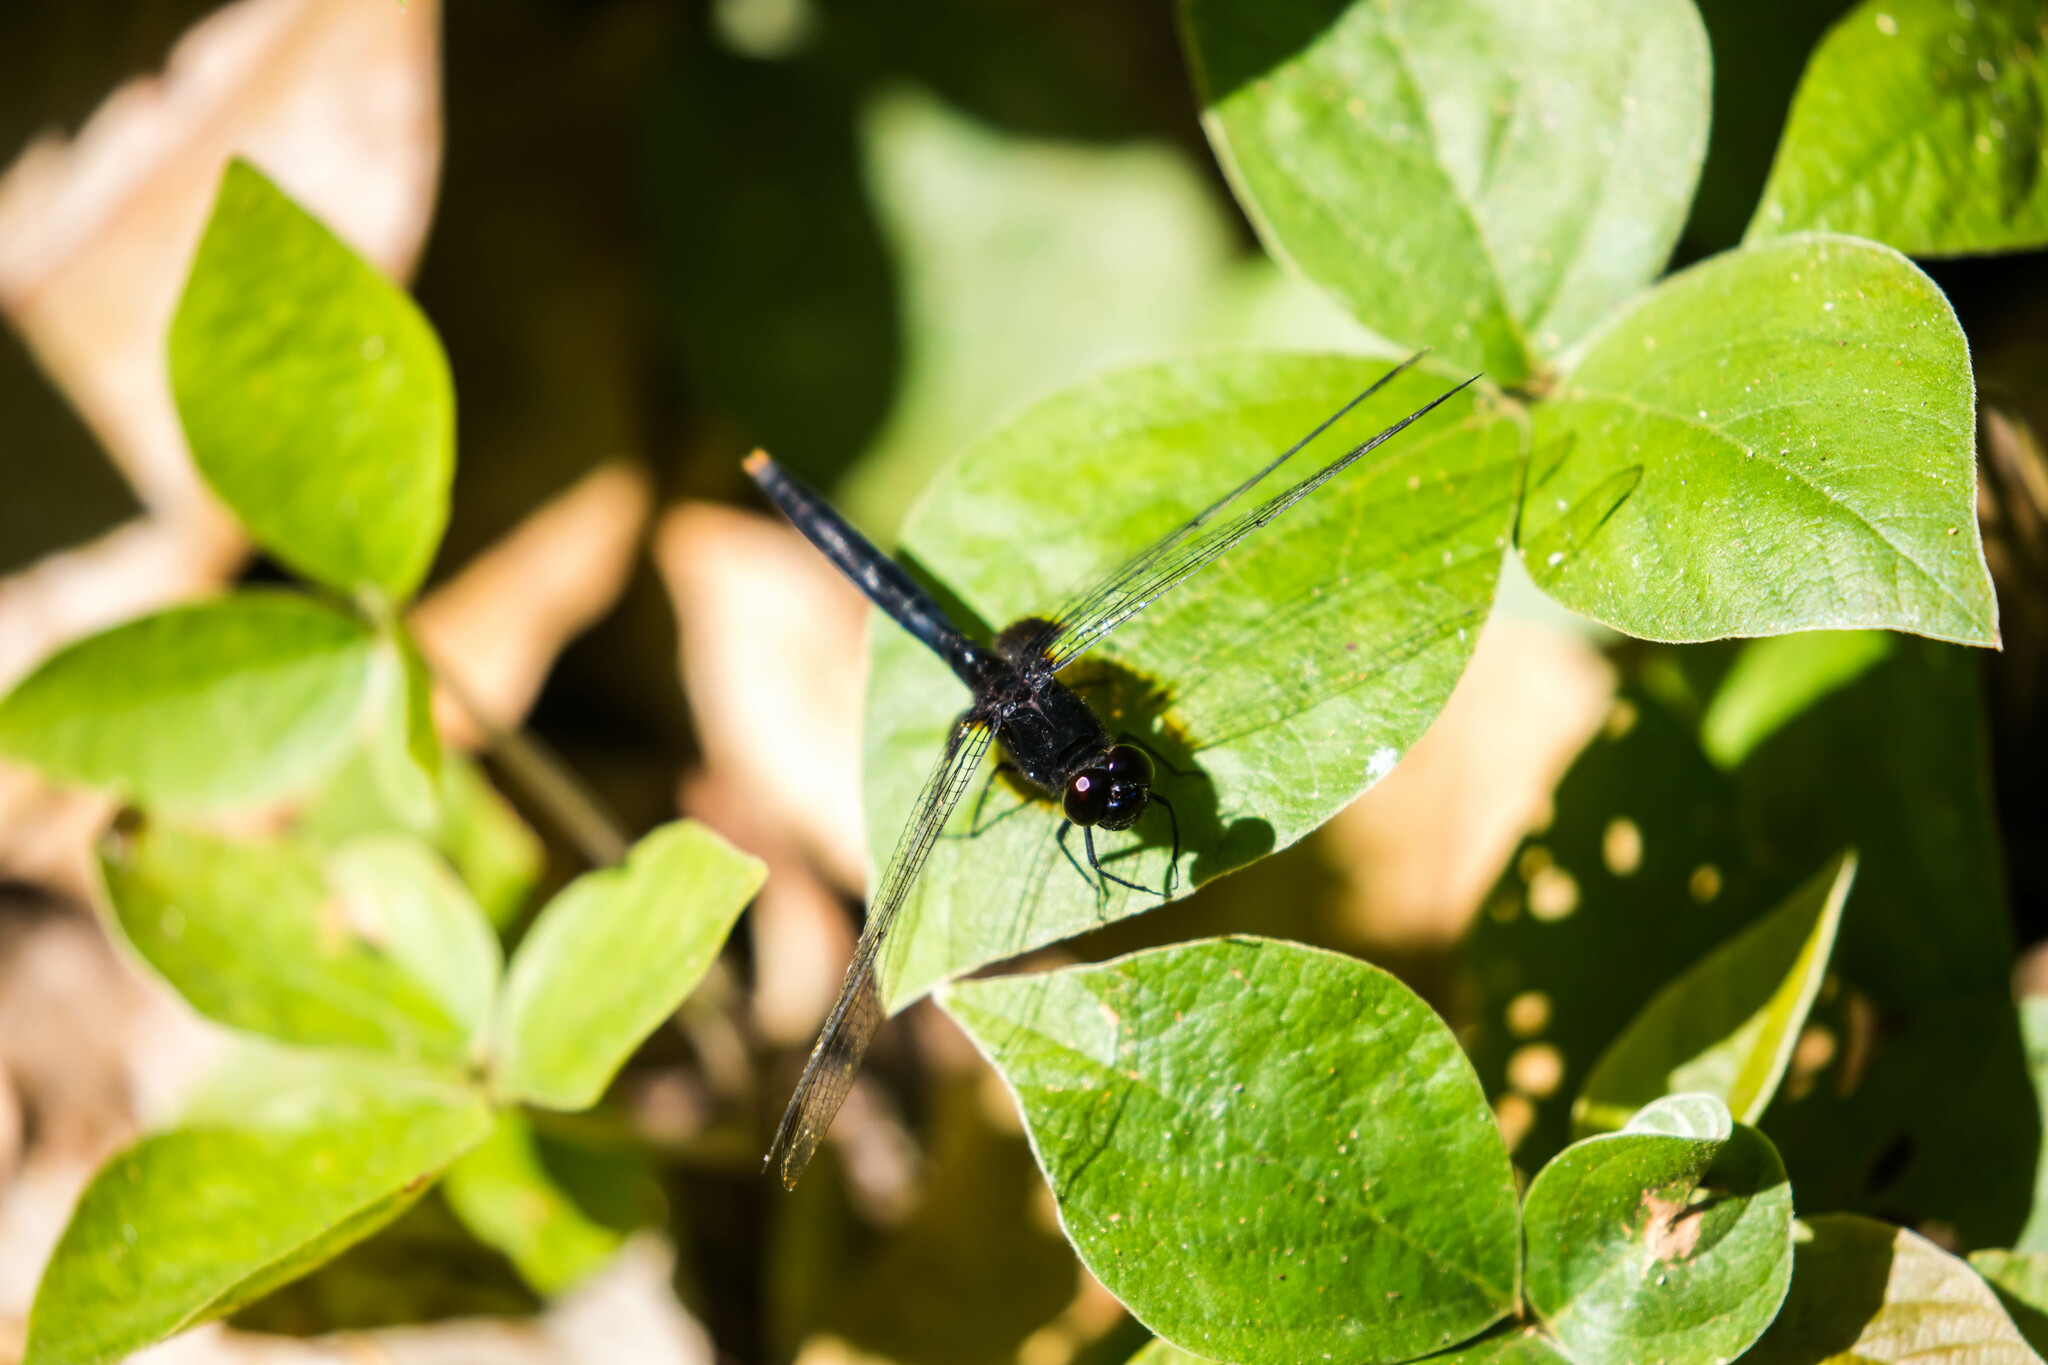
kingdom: Animalia
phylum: Arthropoda
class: Insecta
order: Odonata
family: Libellulidae
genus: Erythemis
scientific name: Erythemis attala
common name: Black pondhawk
